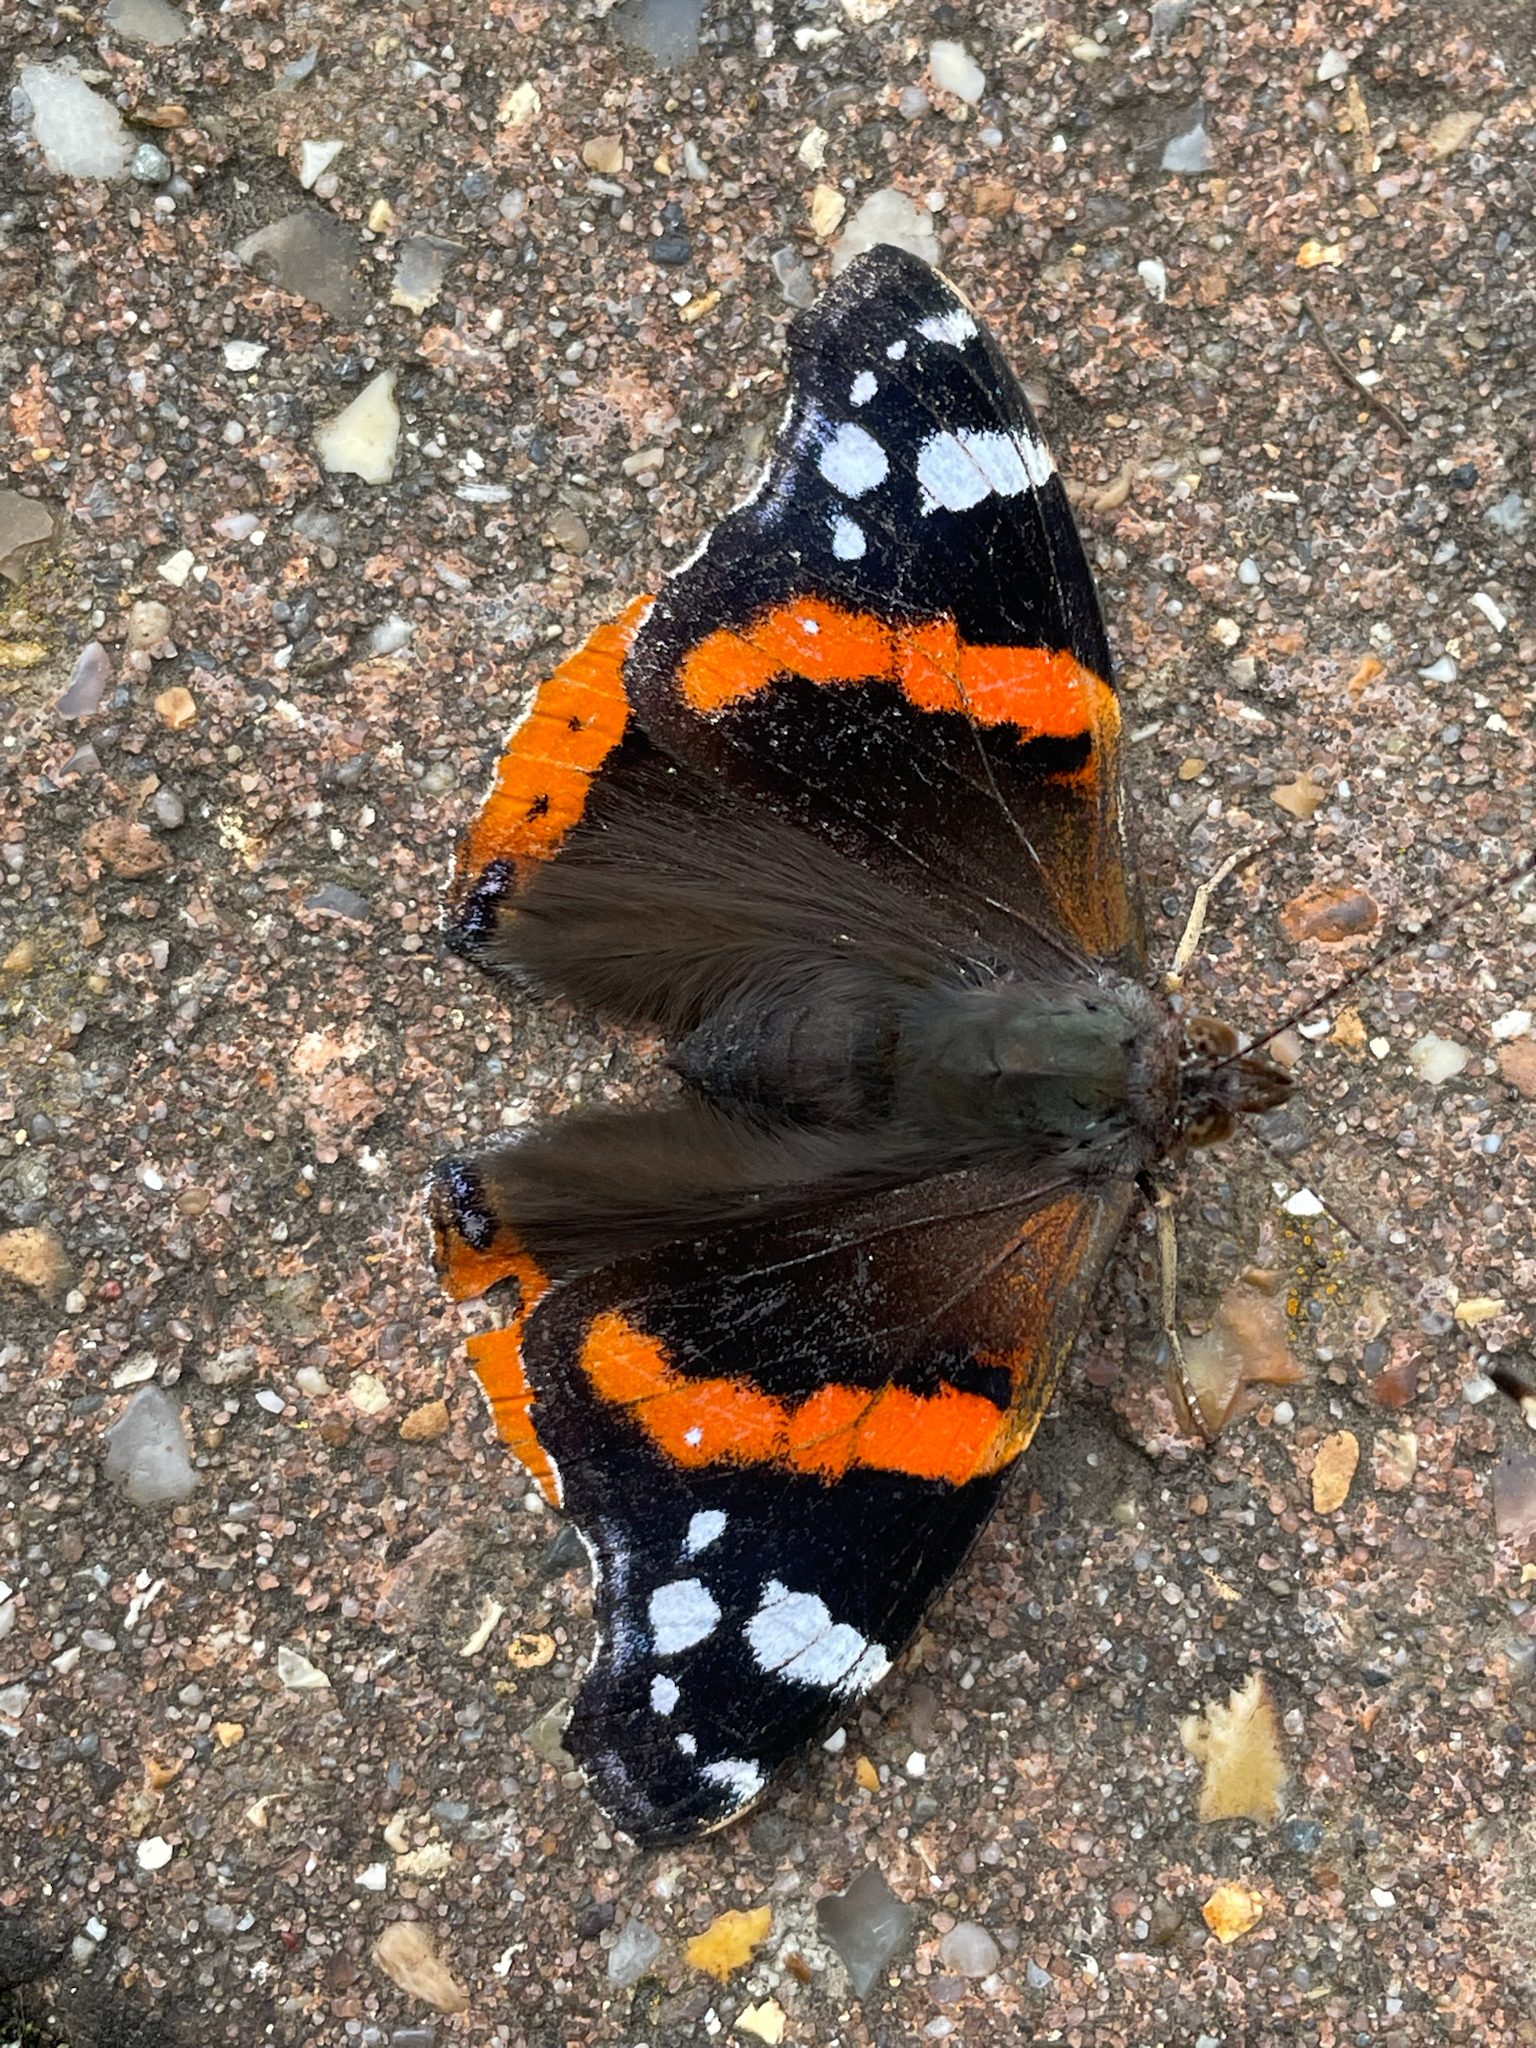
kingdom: Animalia
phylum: Arthropoda
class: Insecta
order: Lepidoptera
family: Nymphalidae
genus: Vanessa
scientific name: Vanessa atalanta
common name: Red admiral
